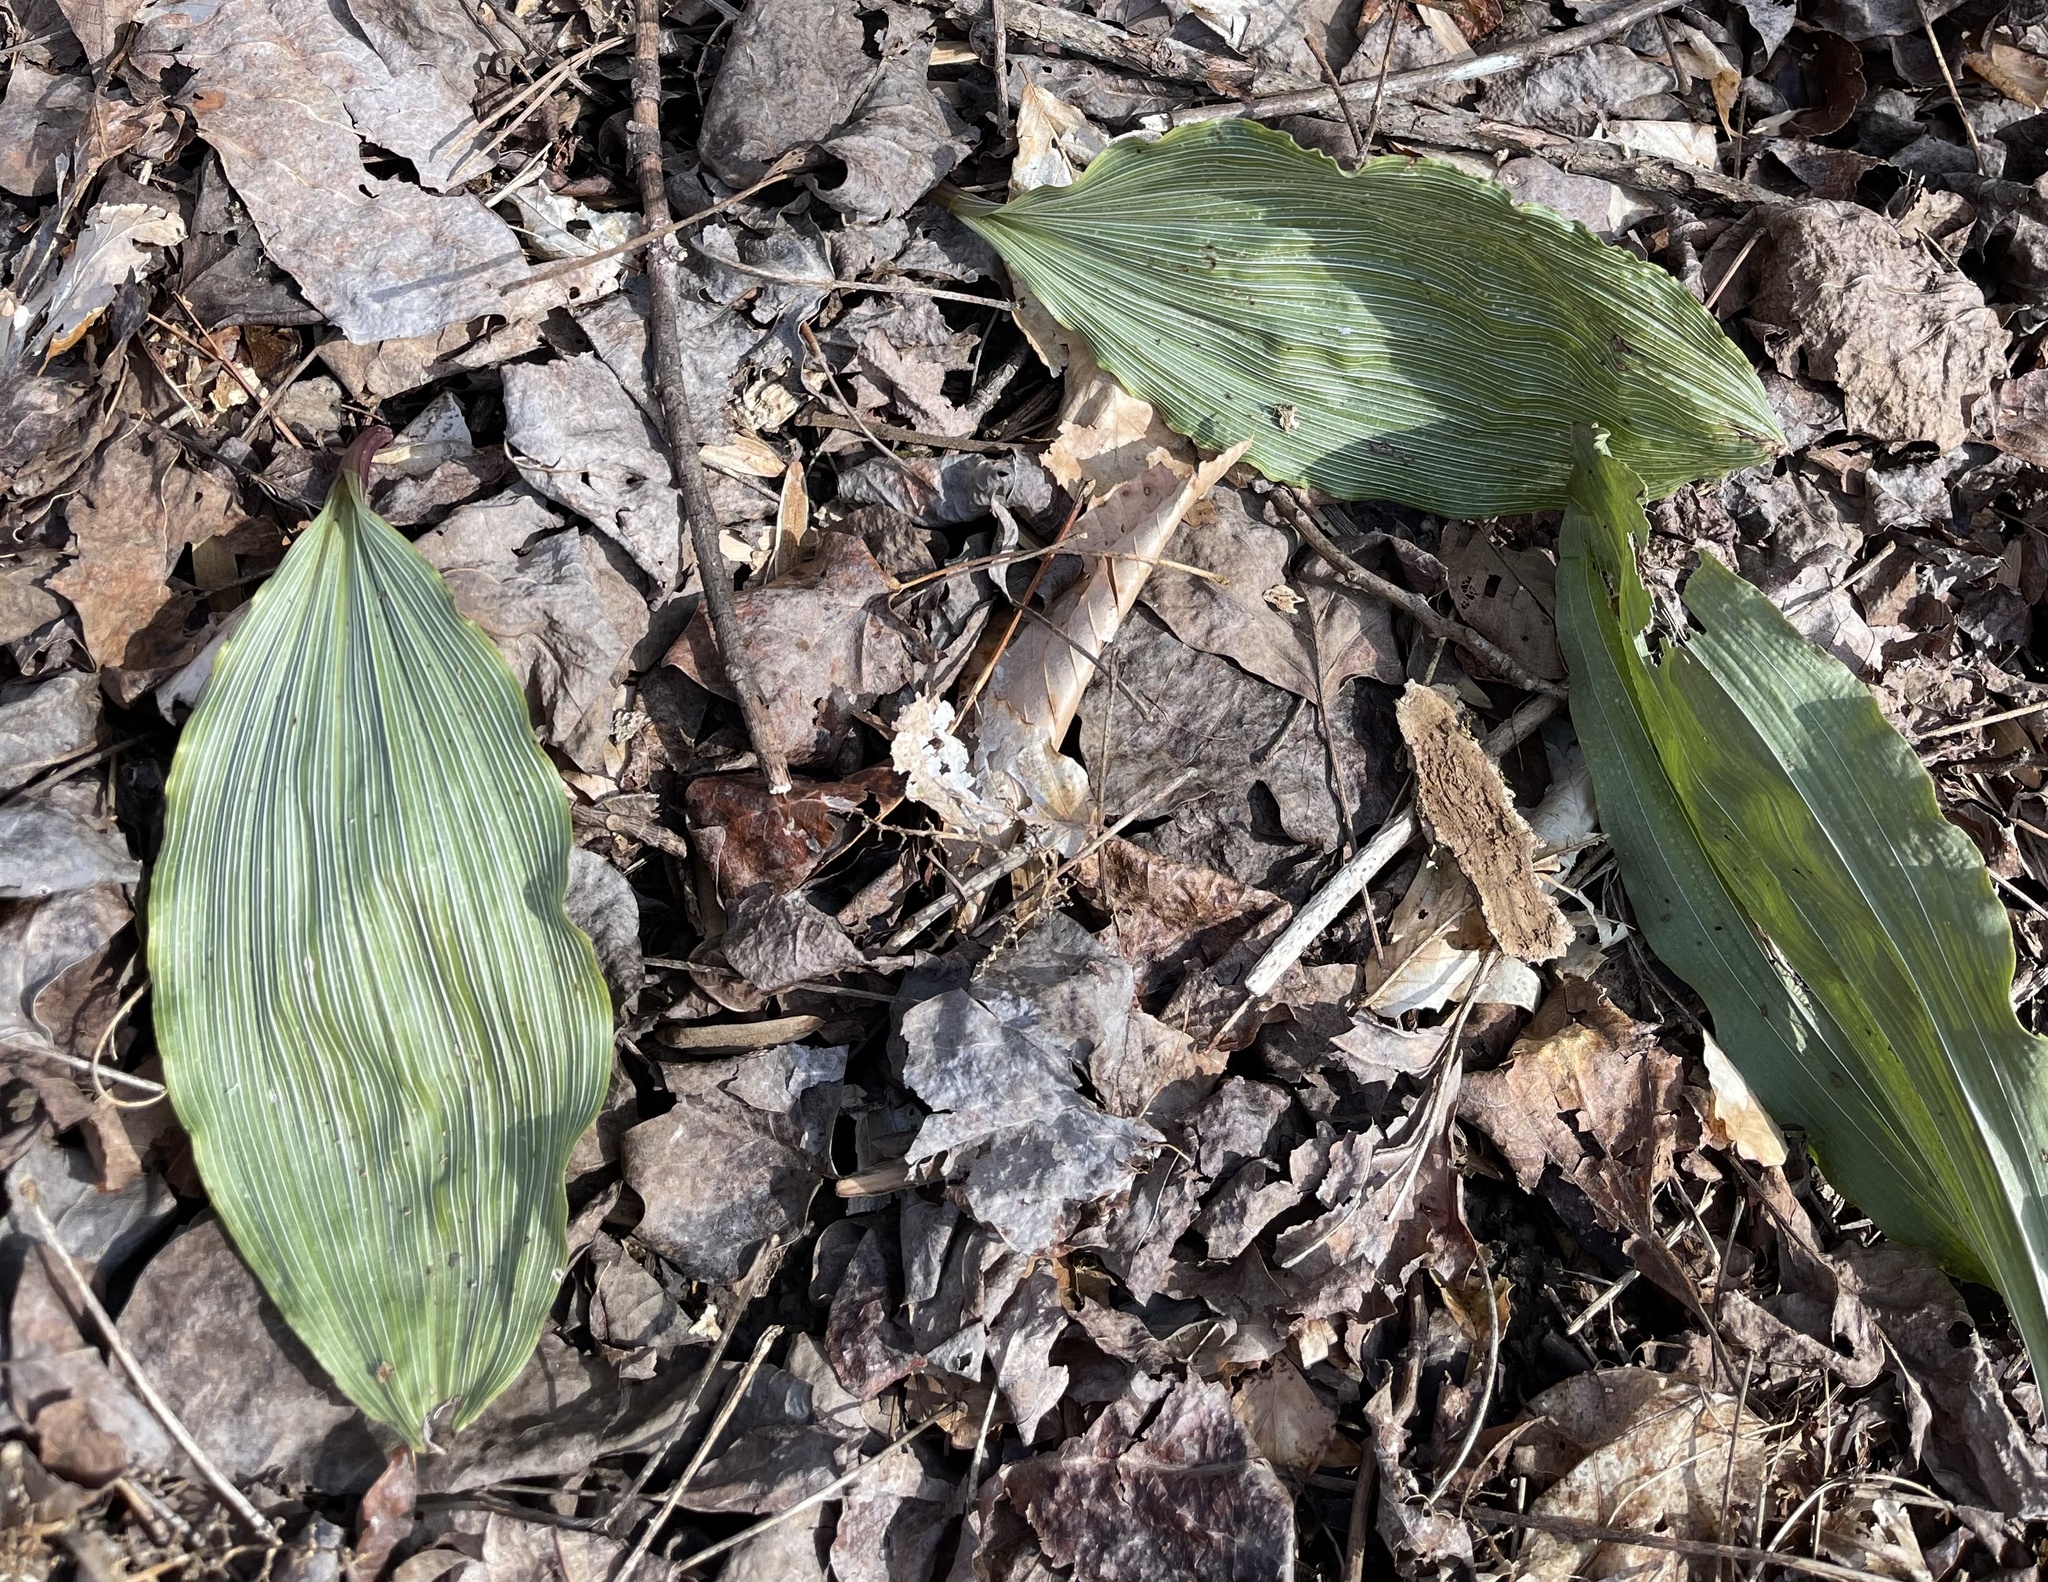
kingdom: Plantae
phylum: Tracheophyta
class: Liliopsida
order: Asparagales
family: Orchidaceae
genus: Aplectrum
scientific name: Aplectrum hyemale
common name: Adam-and-eve
